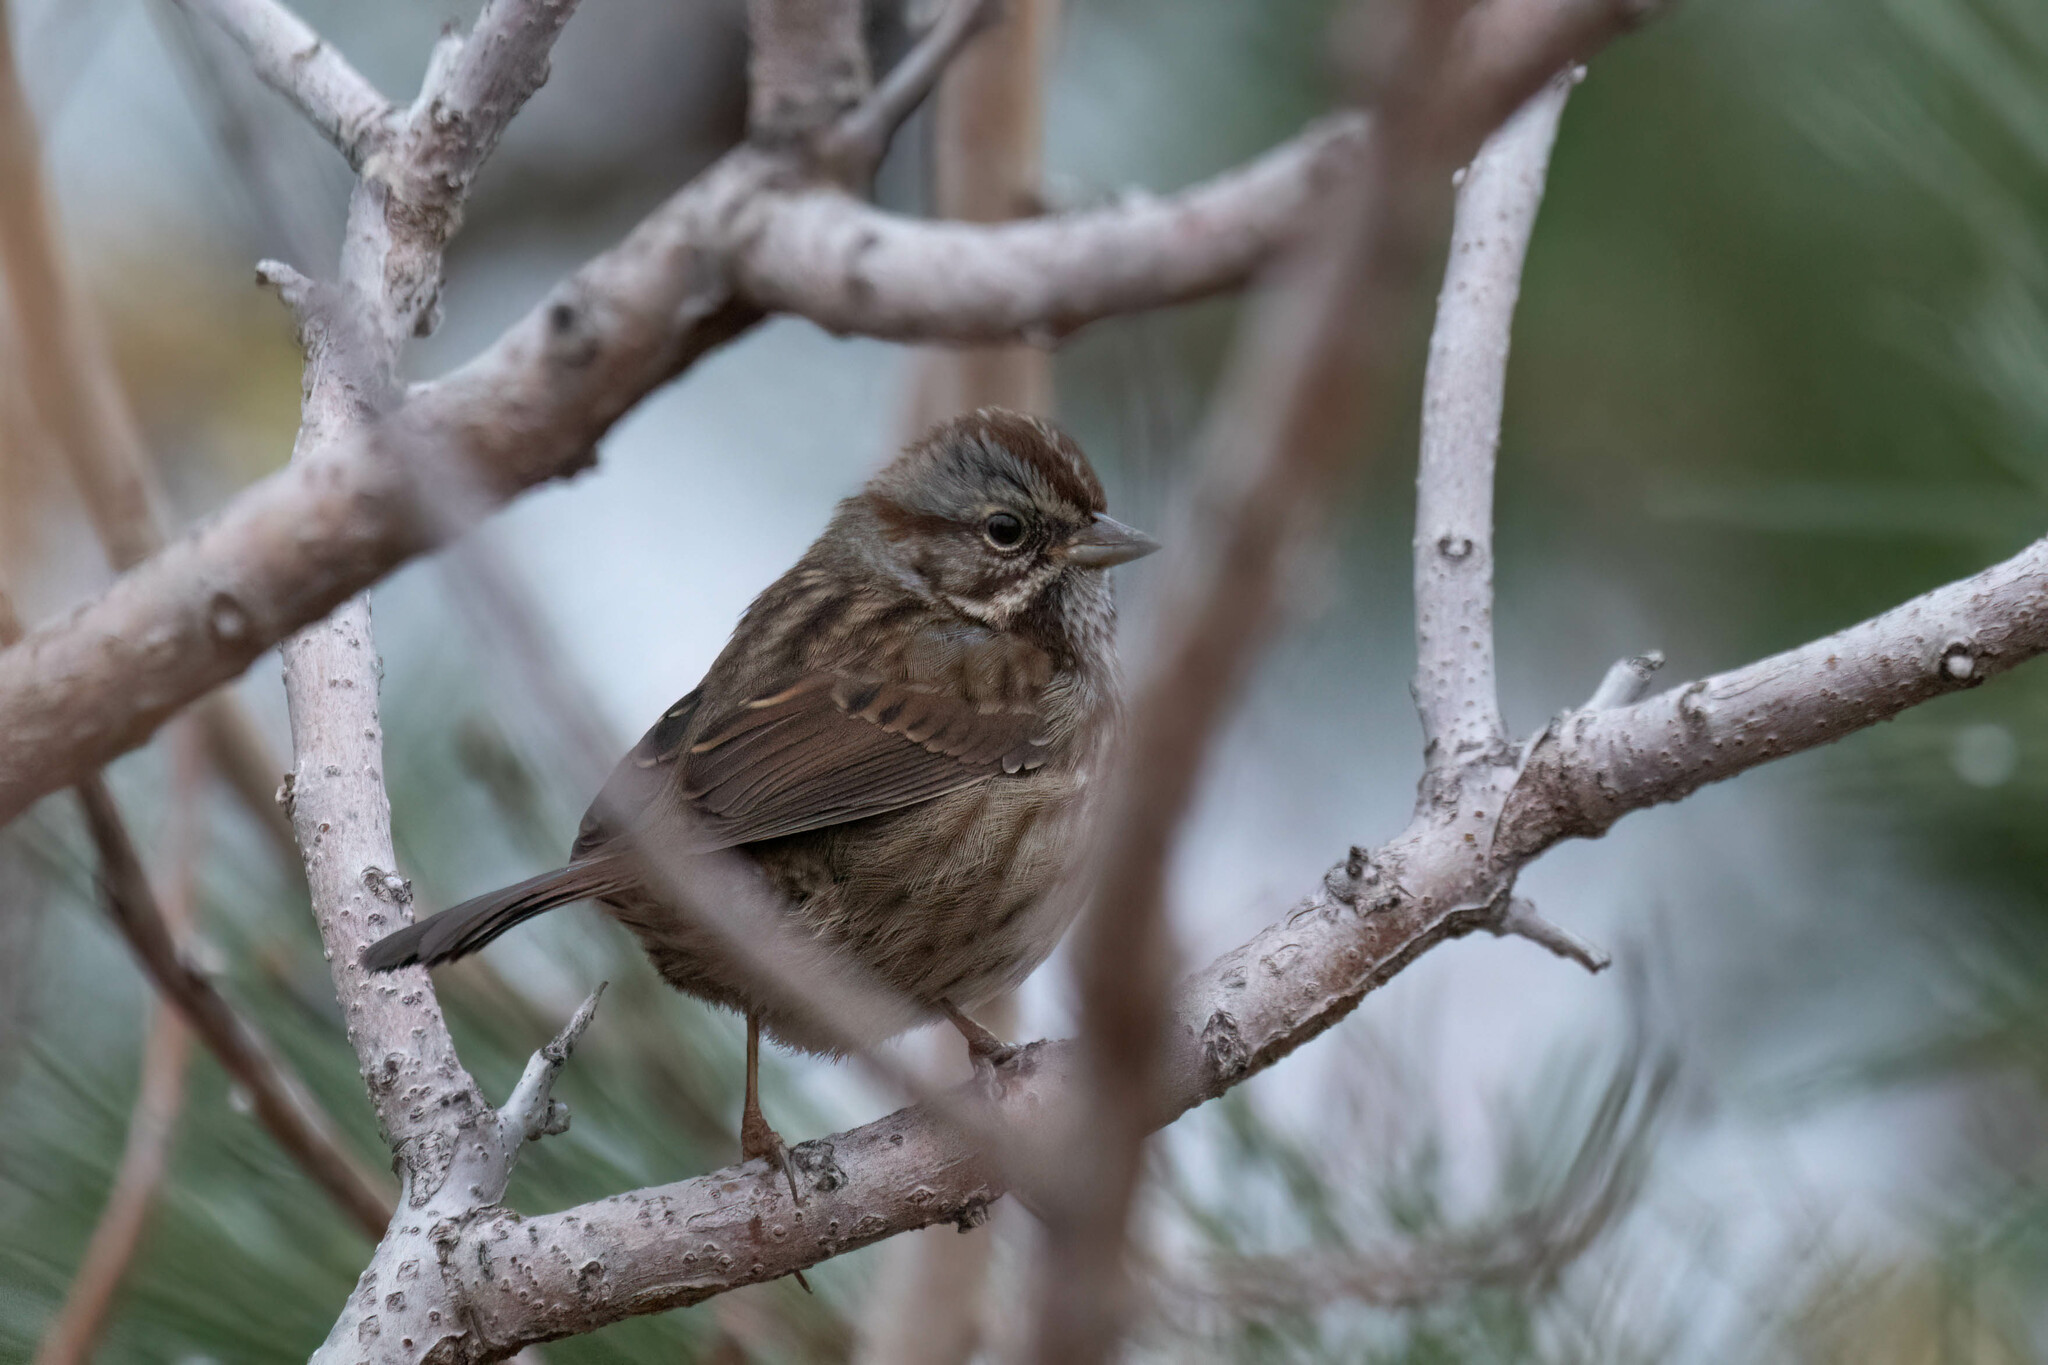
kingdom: Animalia
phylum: Chordata
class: Aves
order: Passeriformes
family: Passerellidae
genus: Melospiza
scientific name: Melospiza melodia
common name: Song sparrow
